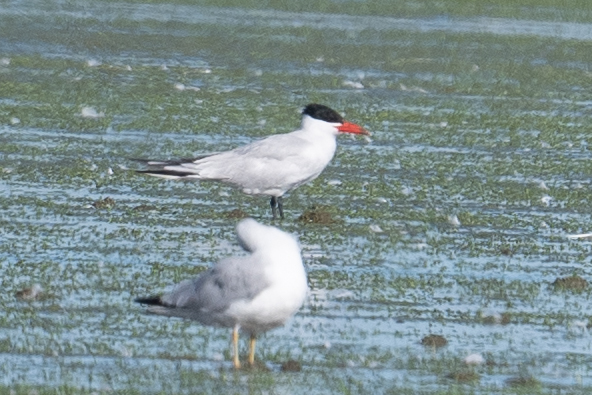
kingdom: Animalia
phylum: Chordata
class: Aves
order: Charadriiformes
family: Laridae
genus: Hydroprogne
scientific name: Hydroprogne caspia
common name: Caspian tern
